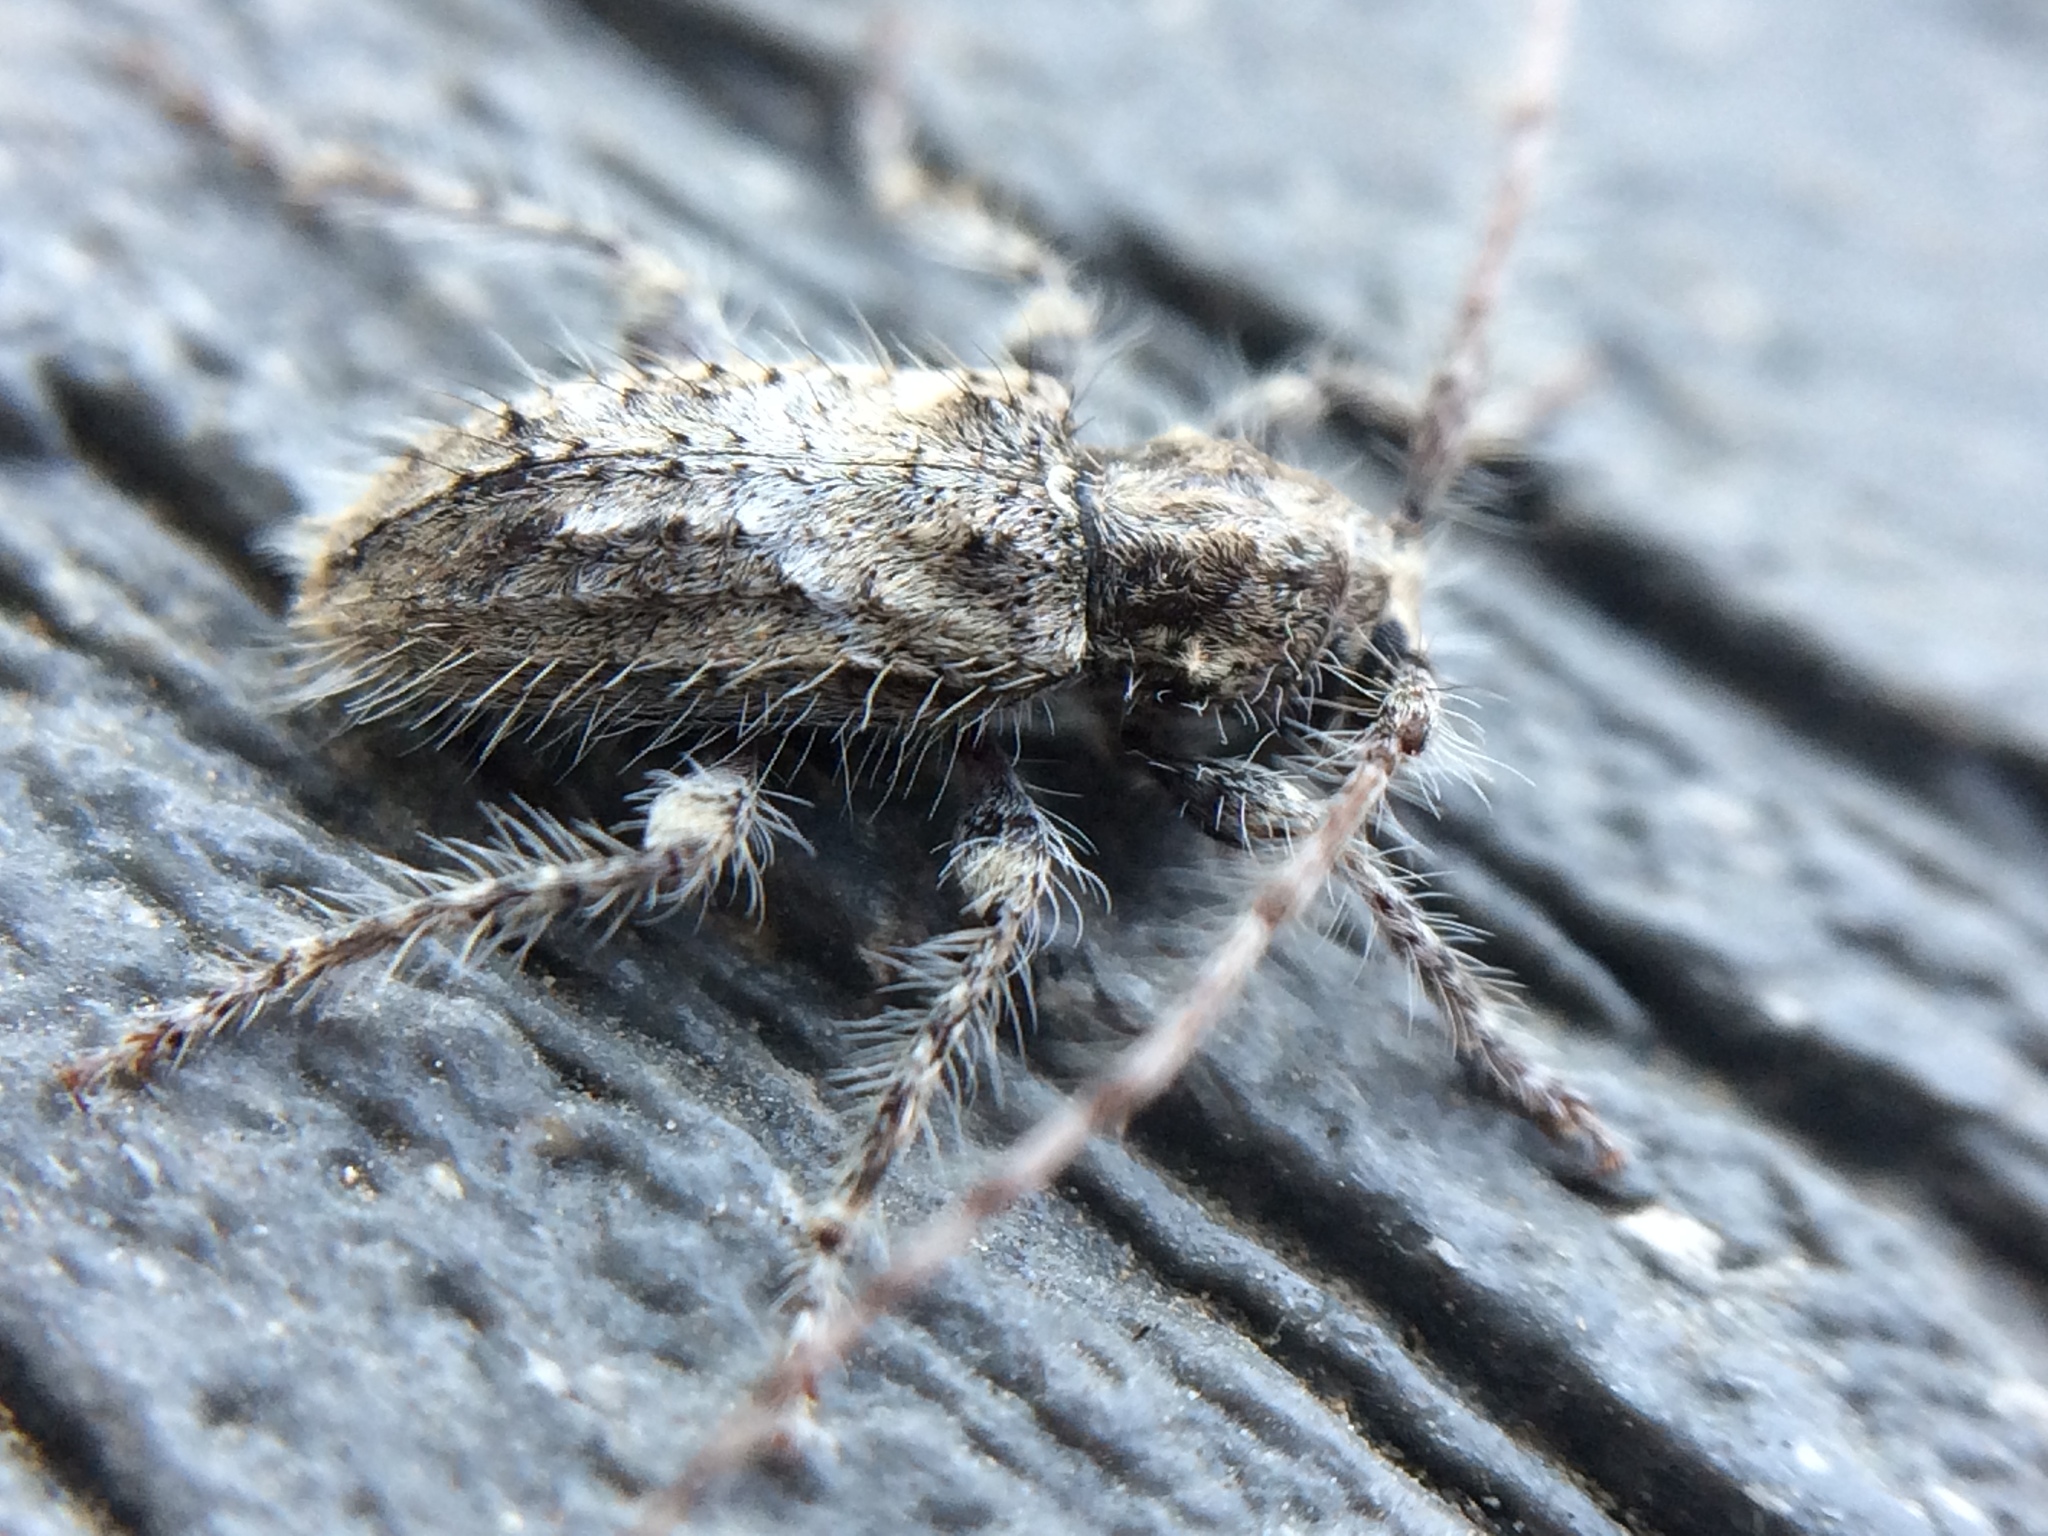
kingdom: Animalia
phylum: Arthropoda
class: Insecta
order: Coleoptera
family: Cerambycidae
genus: Poliaenus
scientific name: Poliaenus obscurus
